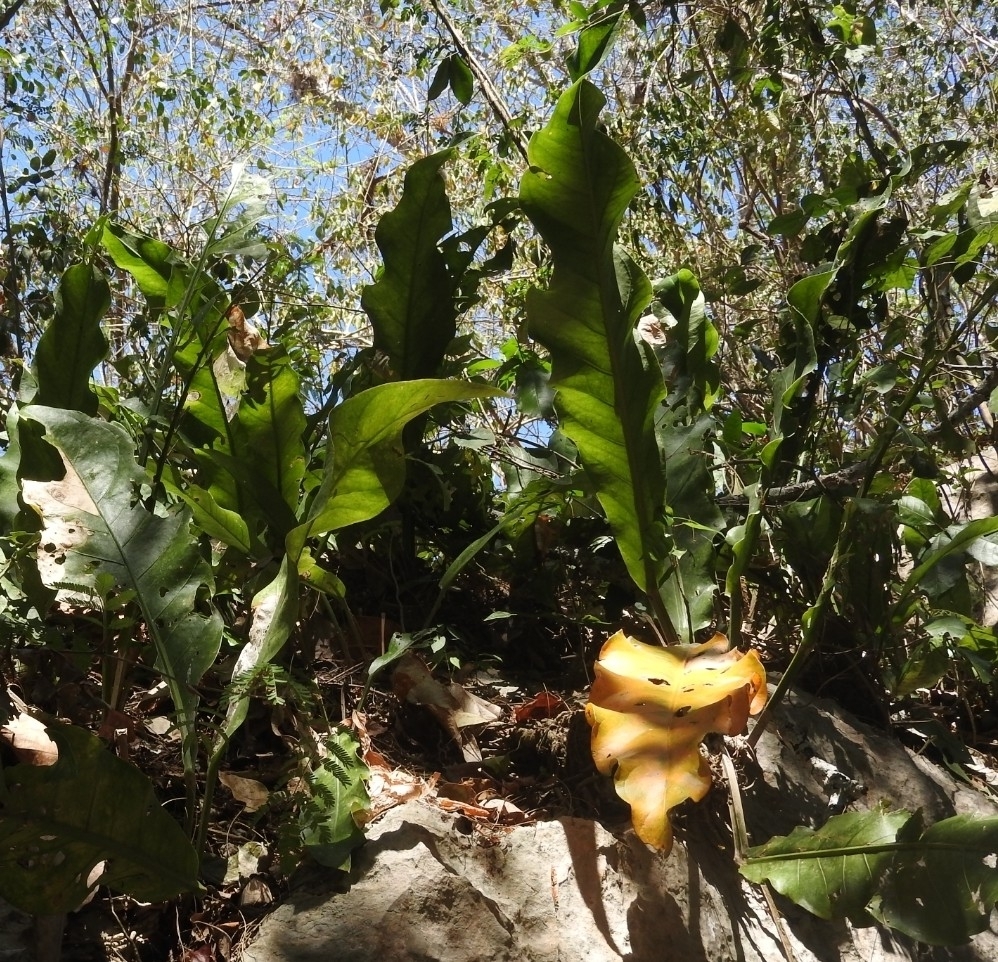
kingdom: Plantae
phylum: Tracheophyta
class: Liliopsida
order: Alismatales
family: Araceae
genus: Anthurium
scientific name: Anthurium schlechtendalii
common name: Laceleaf
